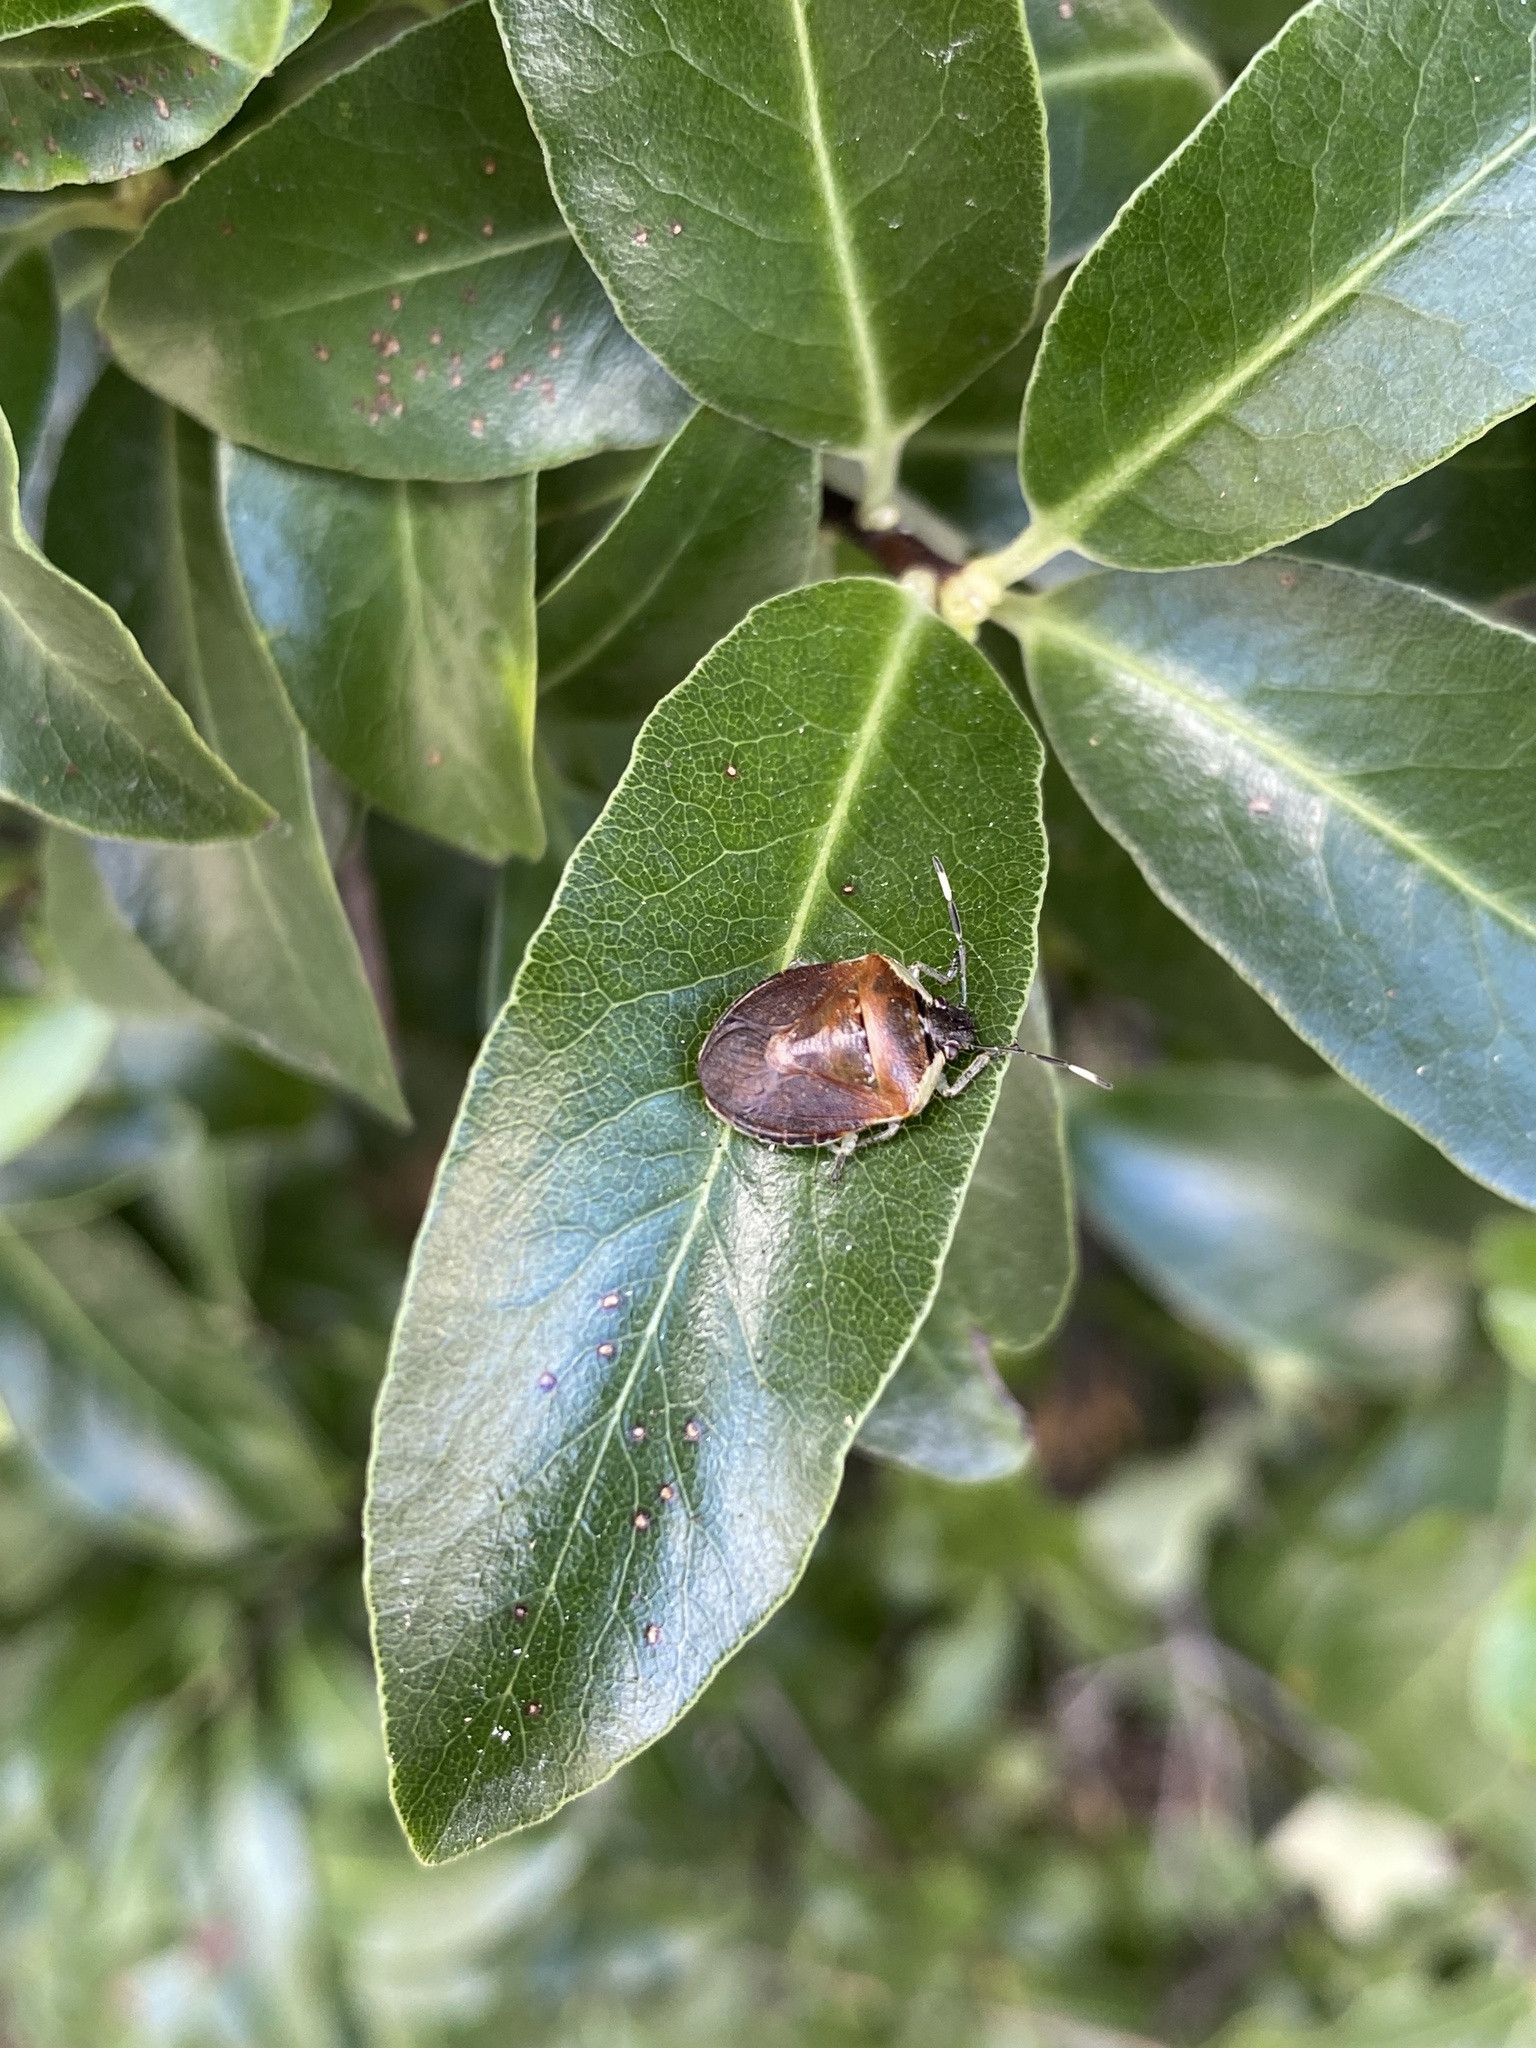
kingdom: Animalia
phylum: Arthropoda
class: Insecta
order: Hemiptera
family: Pentatomidae
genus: Monteithiella
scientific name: Monteithiella
